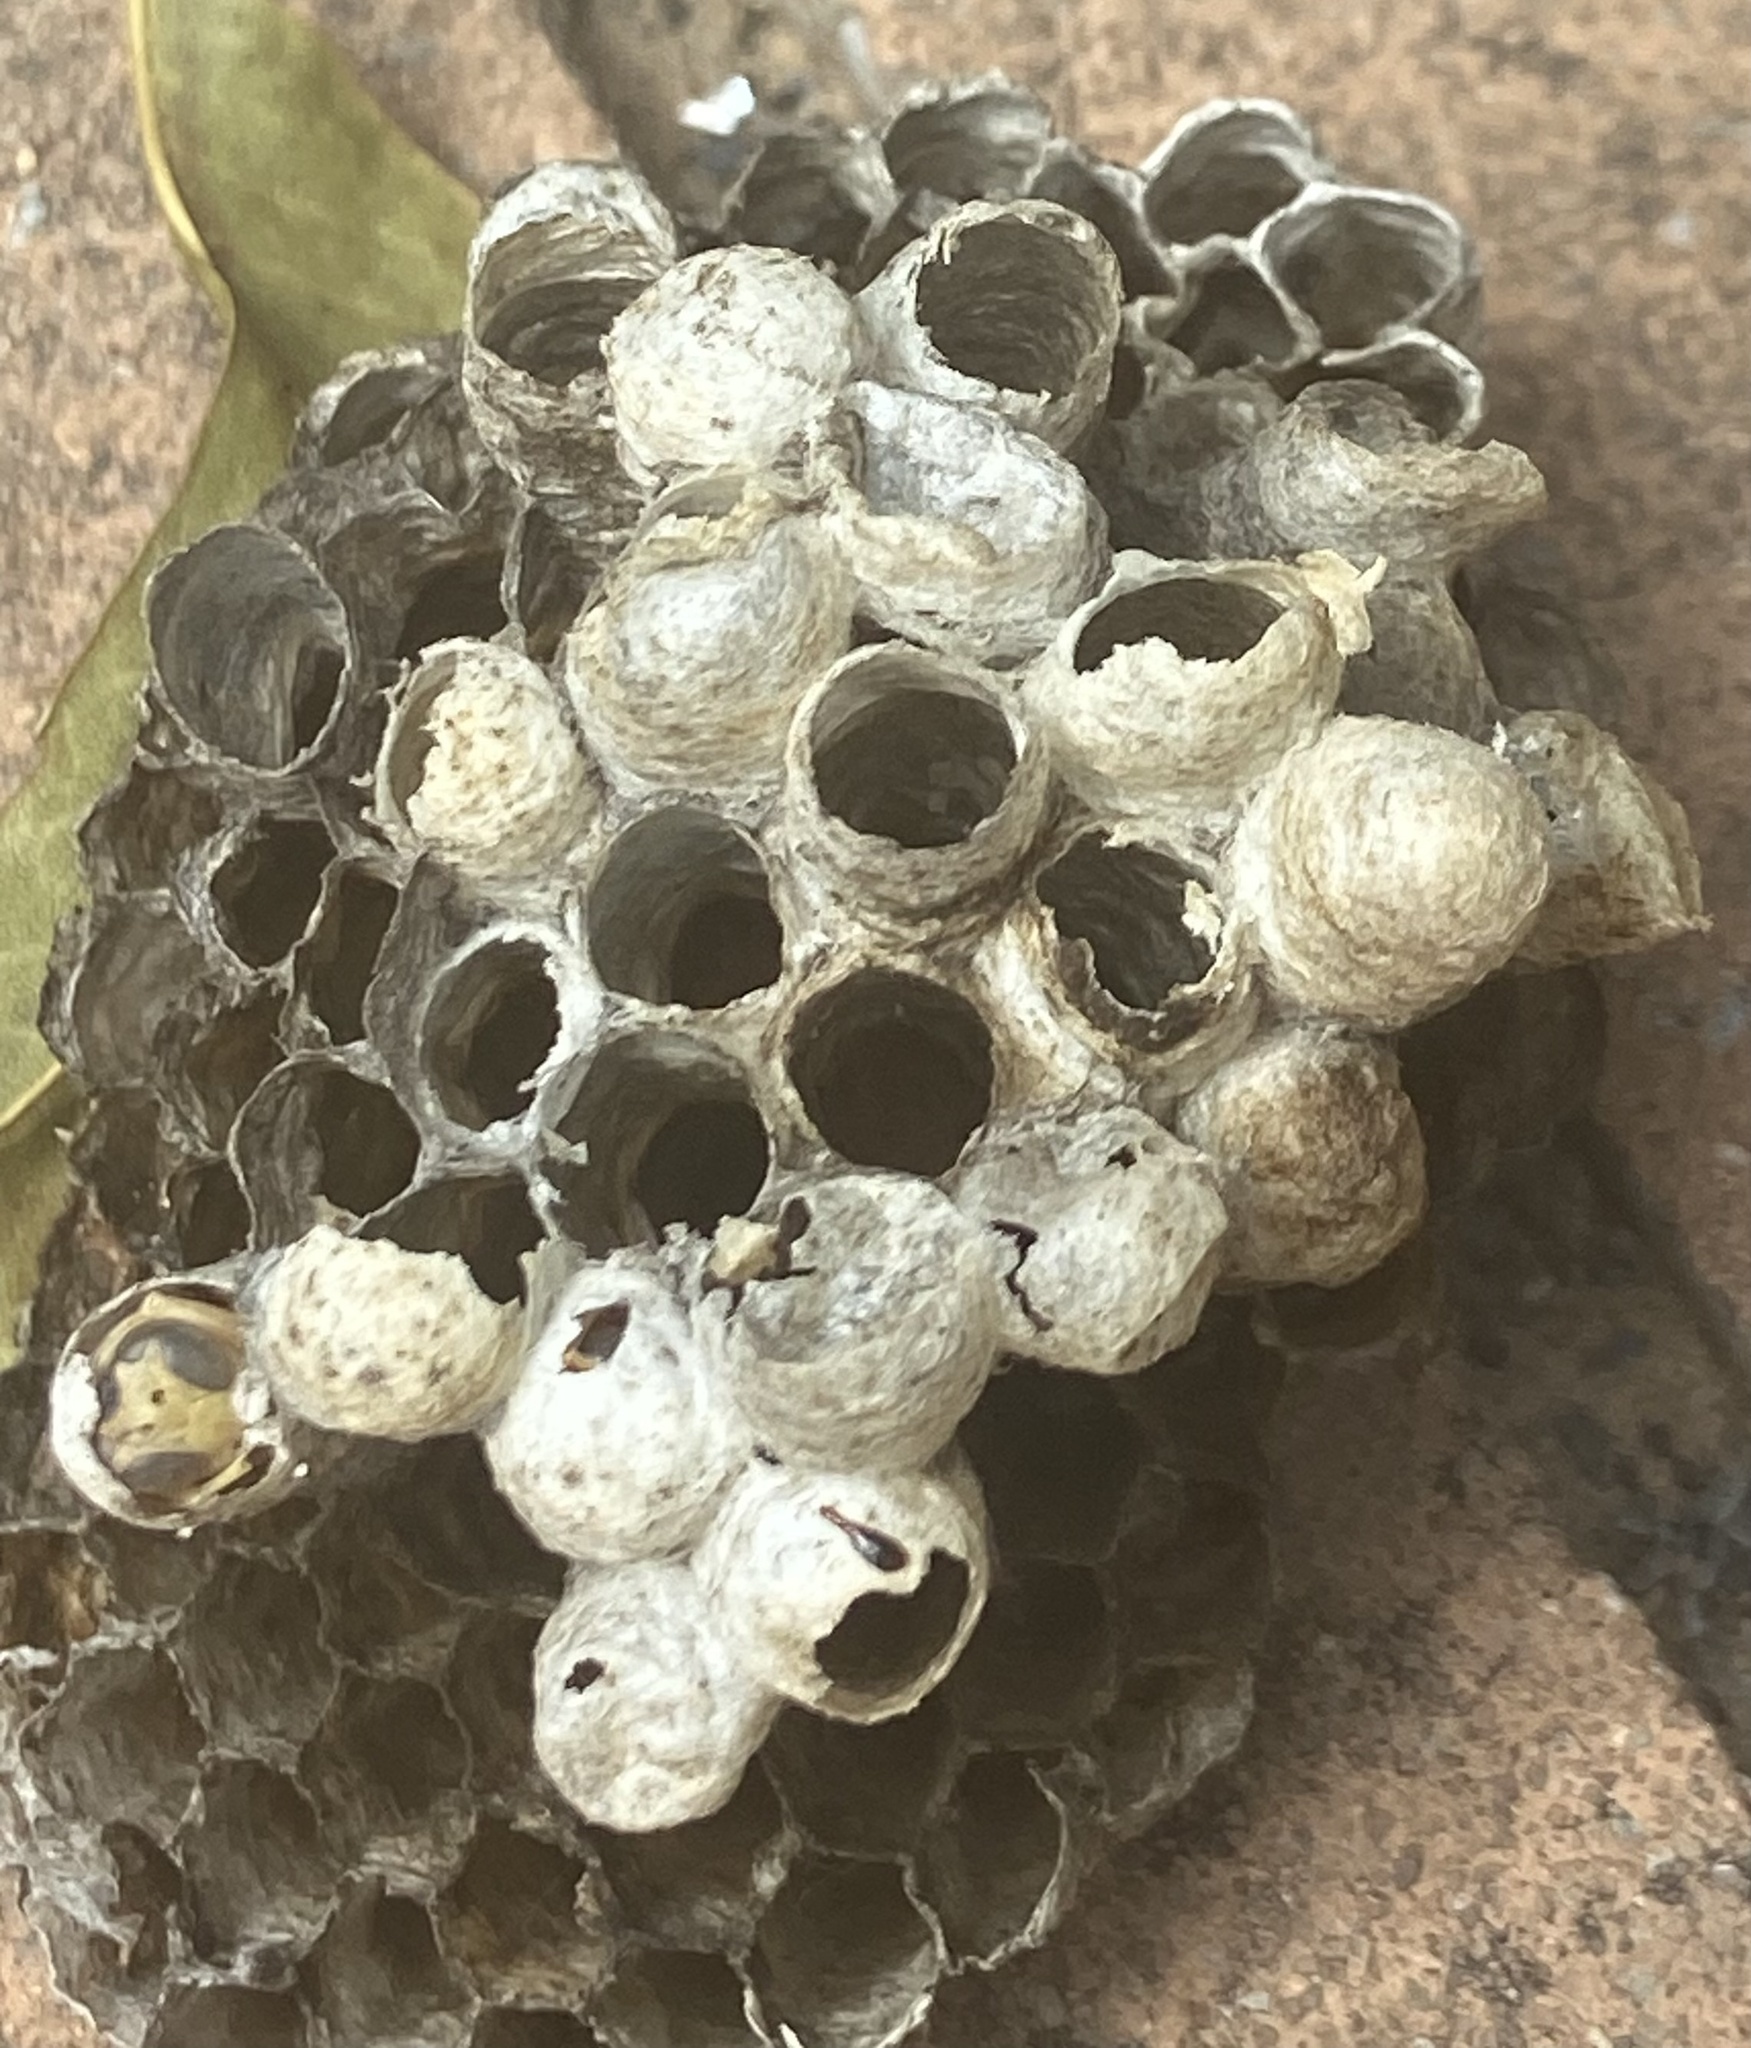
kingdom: Animalia
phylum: Arthropoda
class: Insecta
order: Hymenoptera
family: Eumenidae
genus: Polistes
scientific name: Polistes
